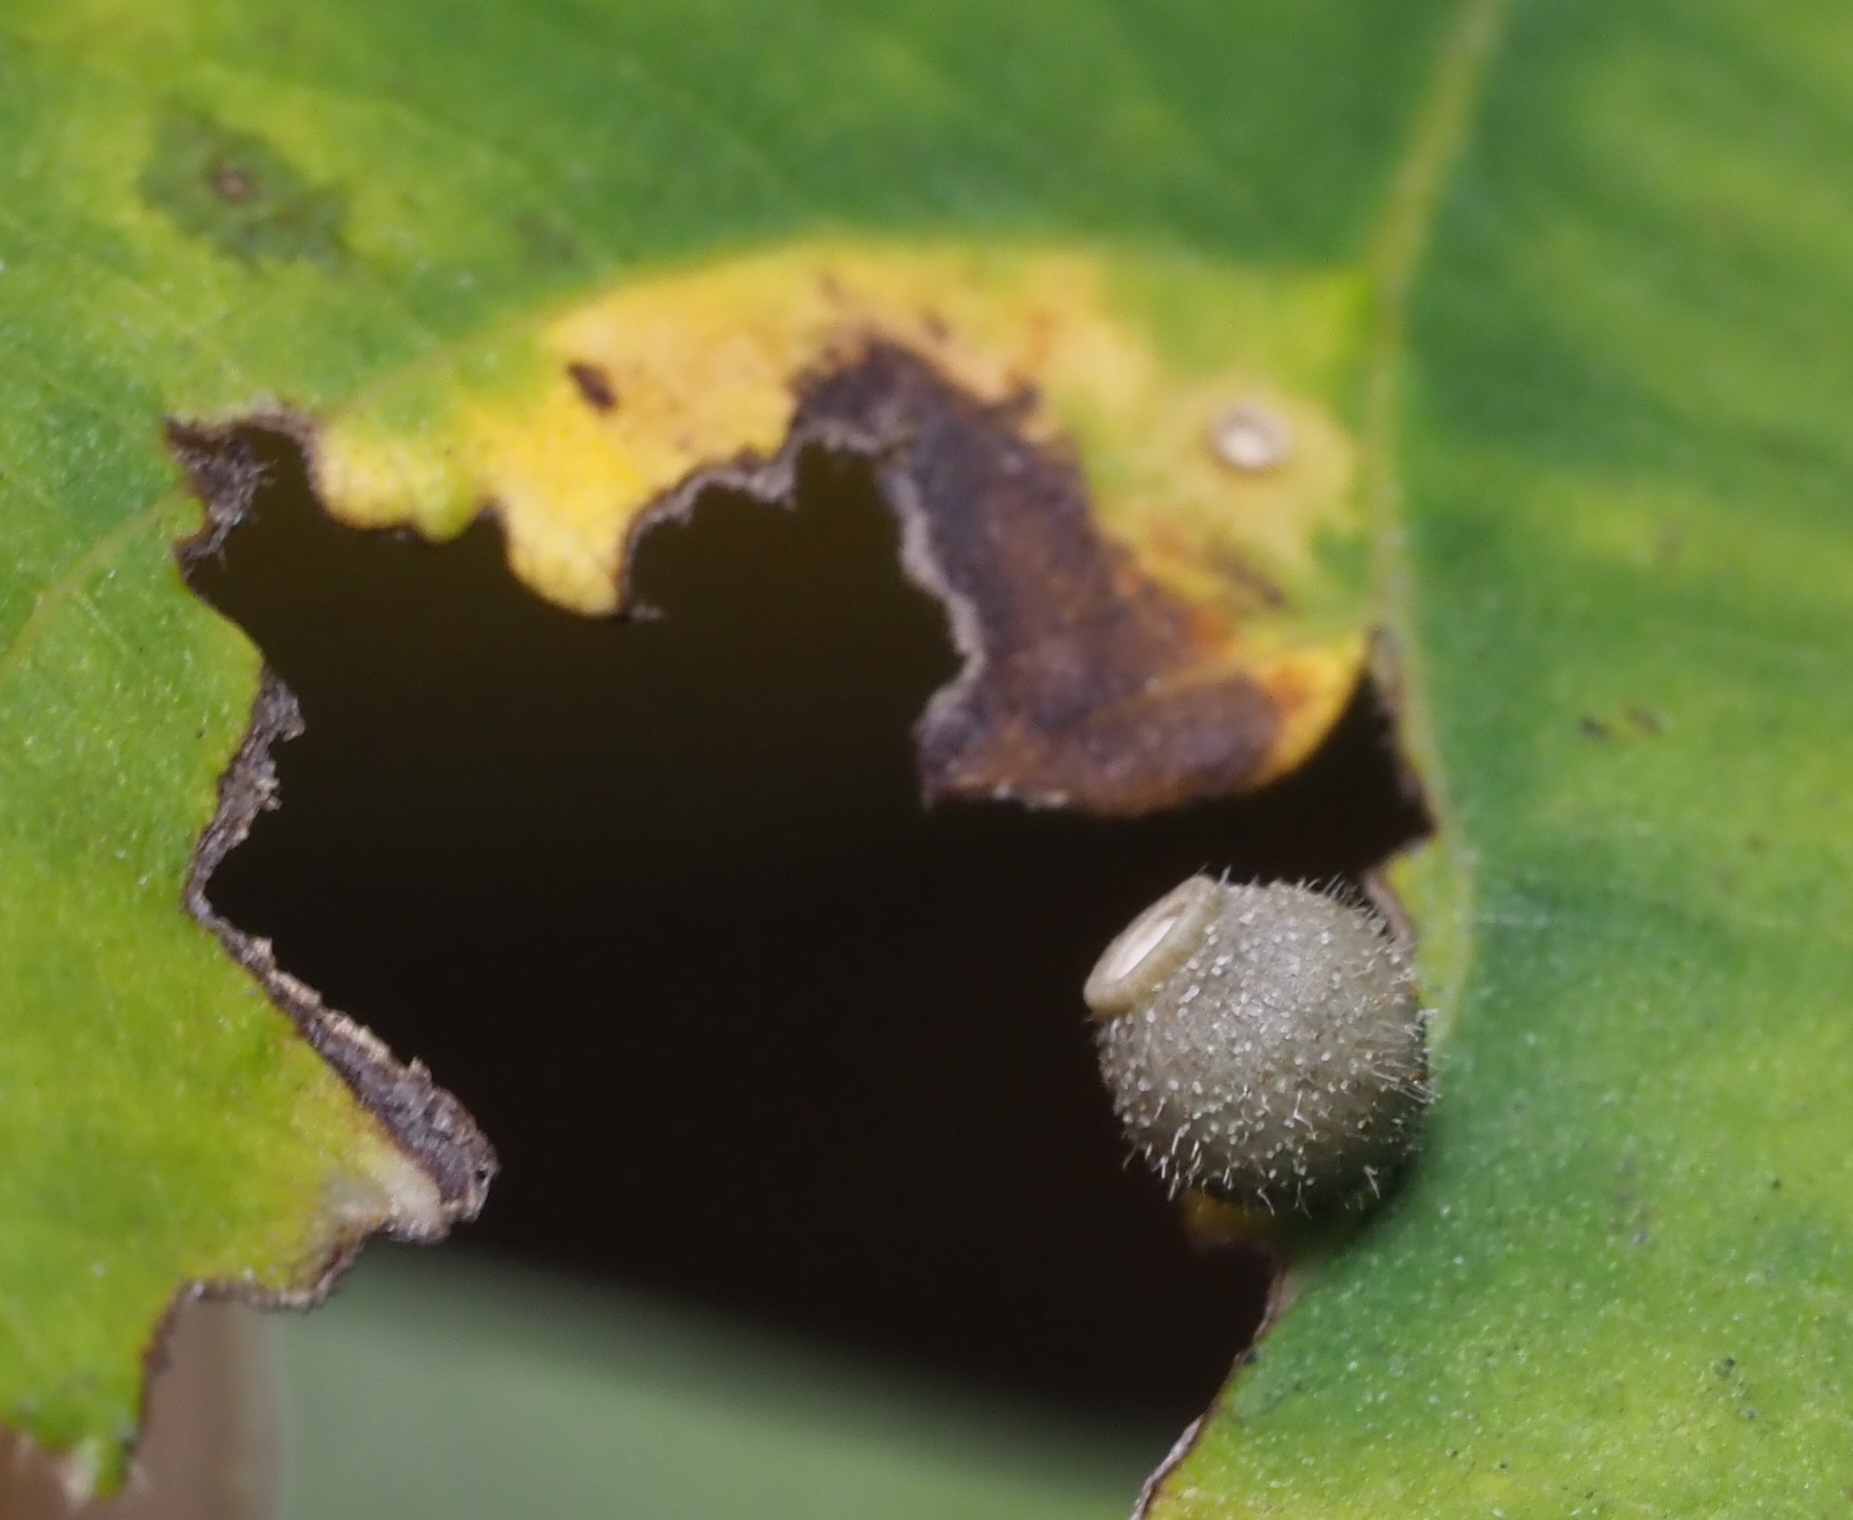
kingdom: Animalia
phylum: Arthropoda
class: Insecta
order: Diptera
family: Cecidomyiidae
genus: Caryomyia
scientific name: Caryomyia viscidolium
